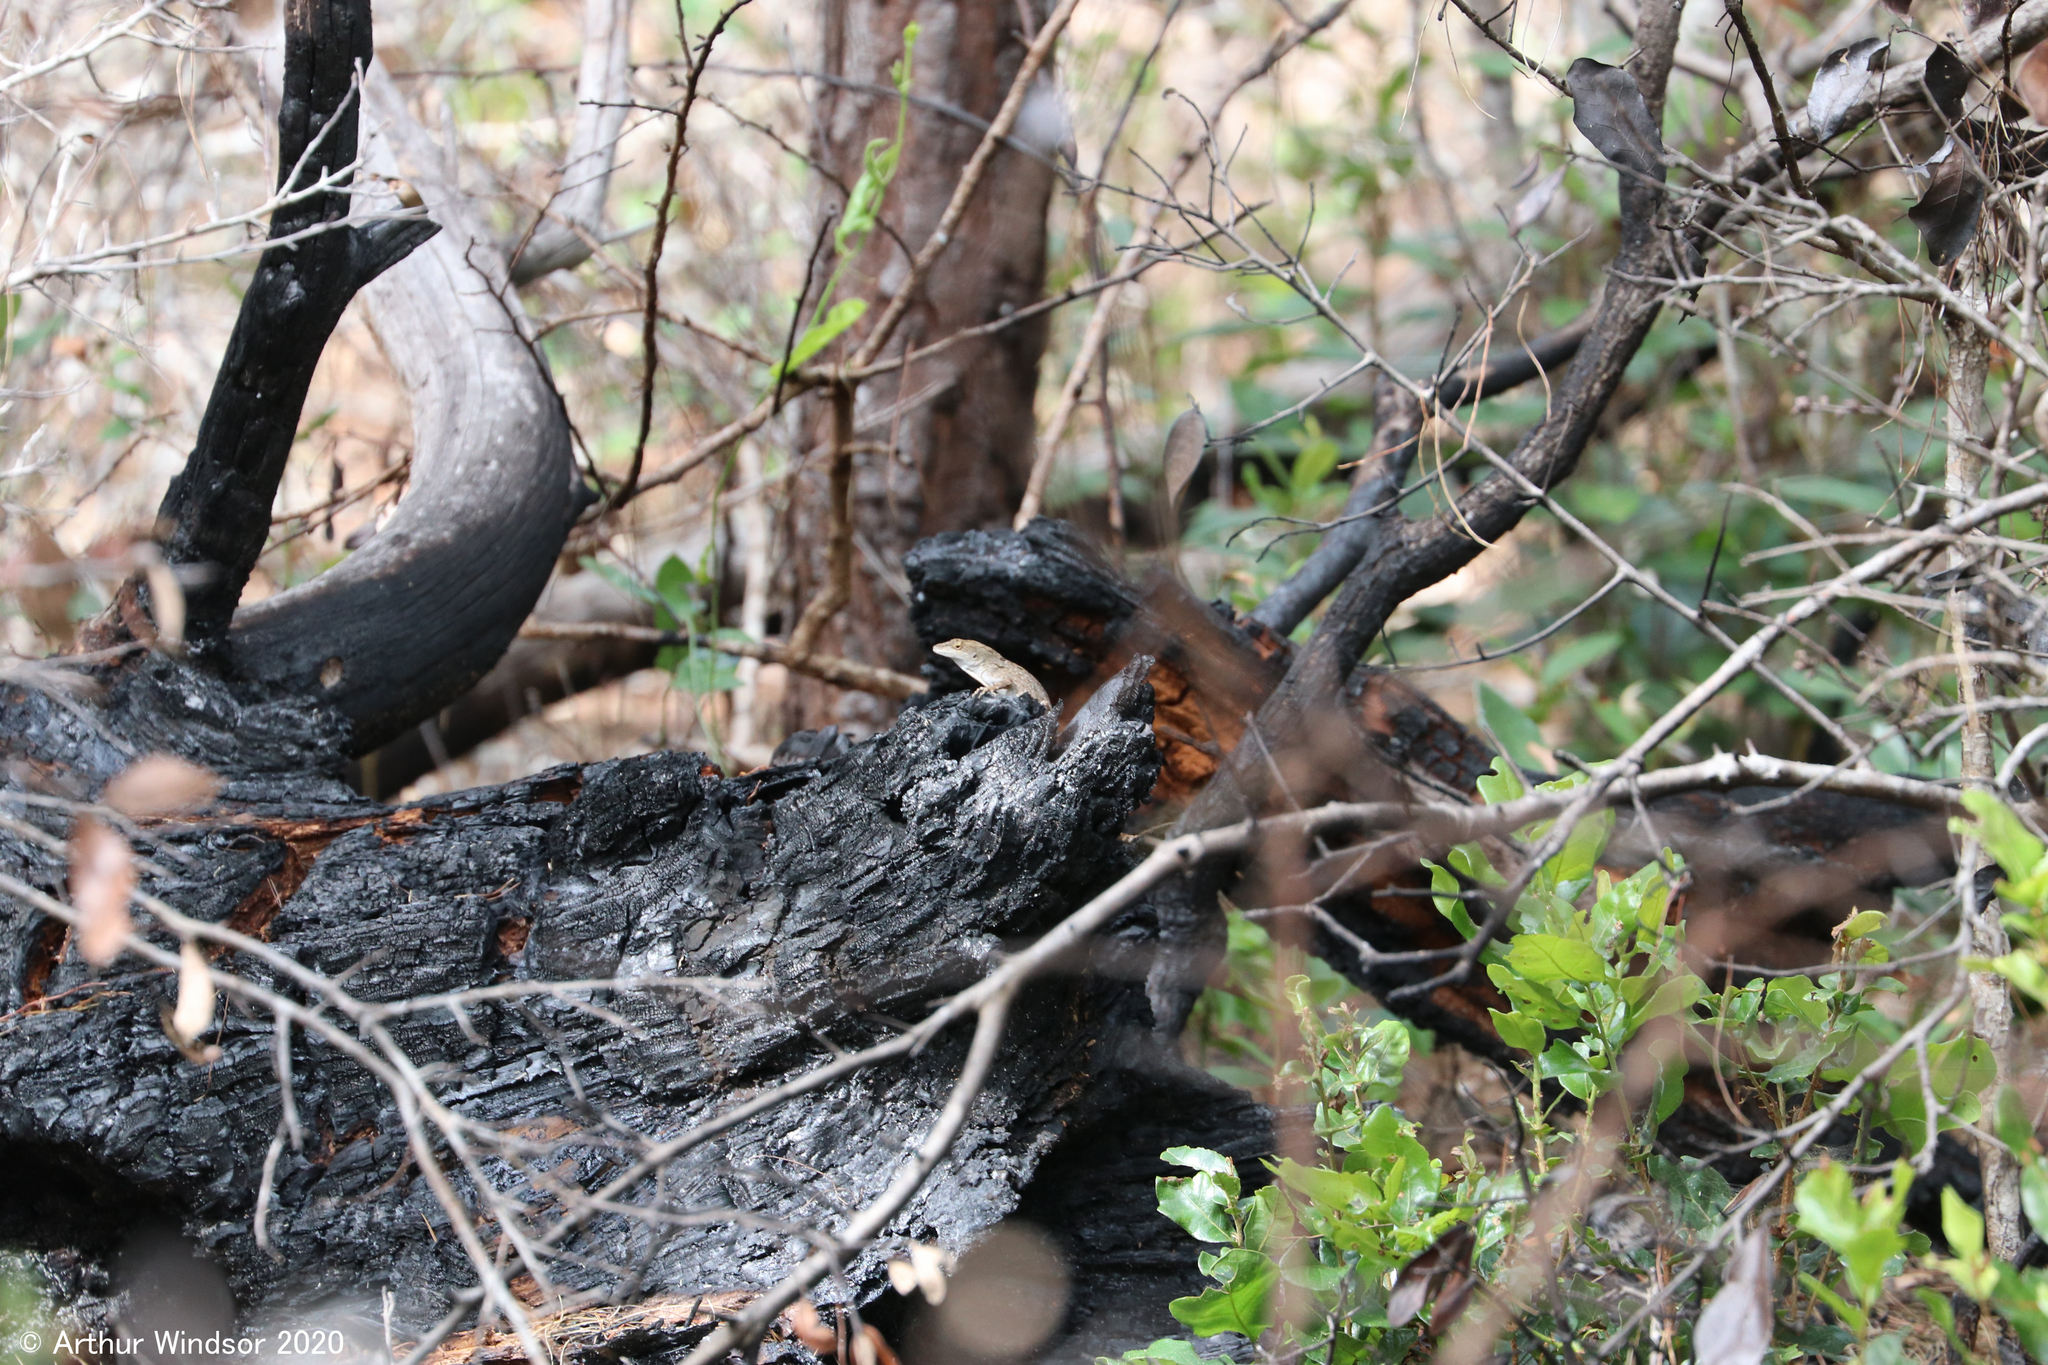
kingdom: Animalia
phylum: Chordata
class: Squamata
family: Dactyloidae
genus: Anolis
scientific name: Anolis sagrei
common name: Brown anole
